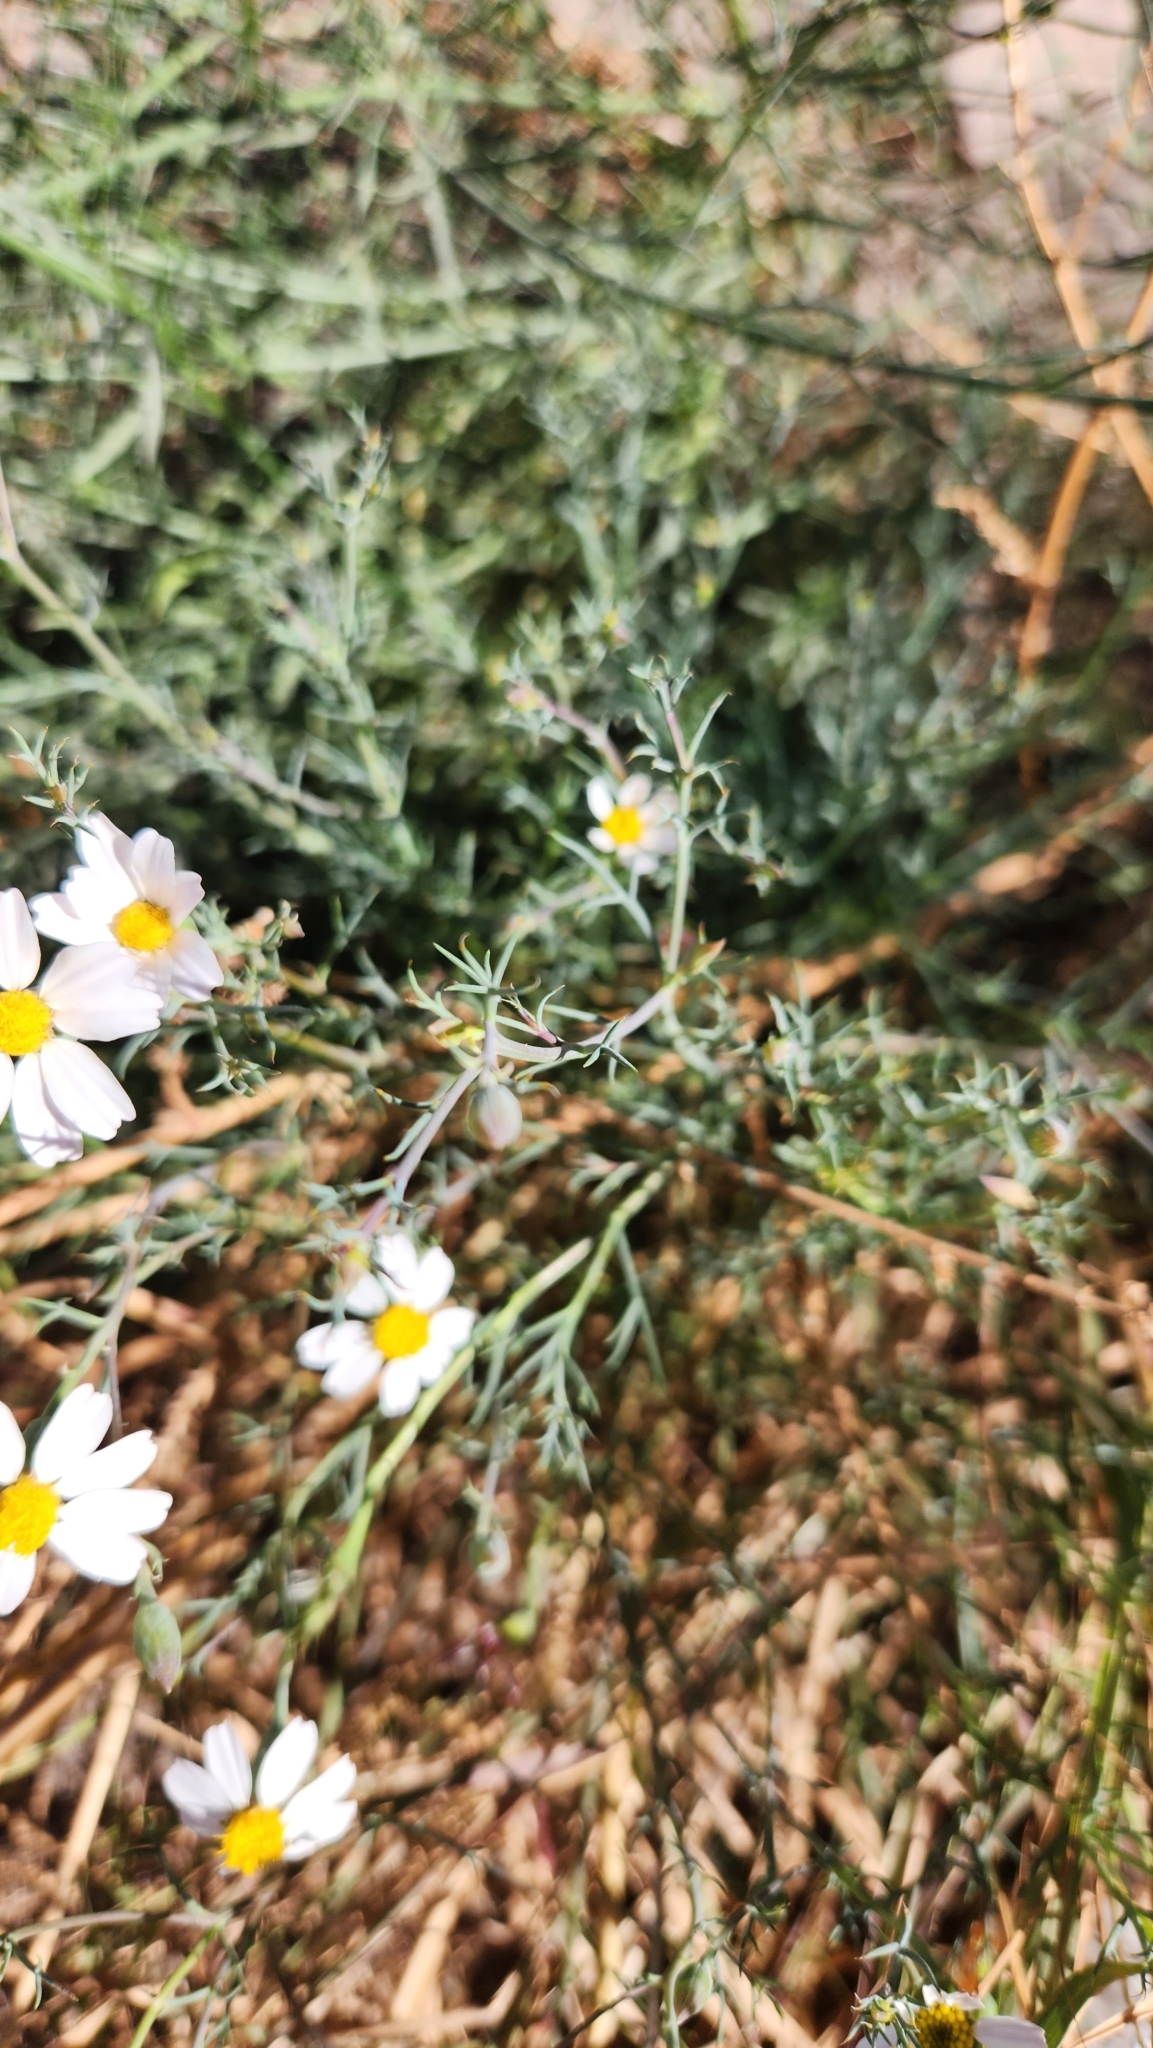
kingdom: Plantae
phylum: Tracheophyta
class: Magnoliopsida
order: Asterales
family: Asteraceae
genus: Nicolletia
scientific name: Nicolletia trifida
